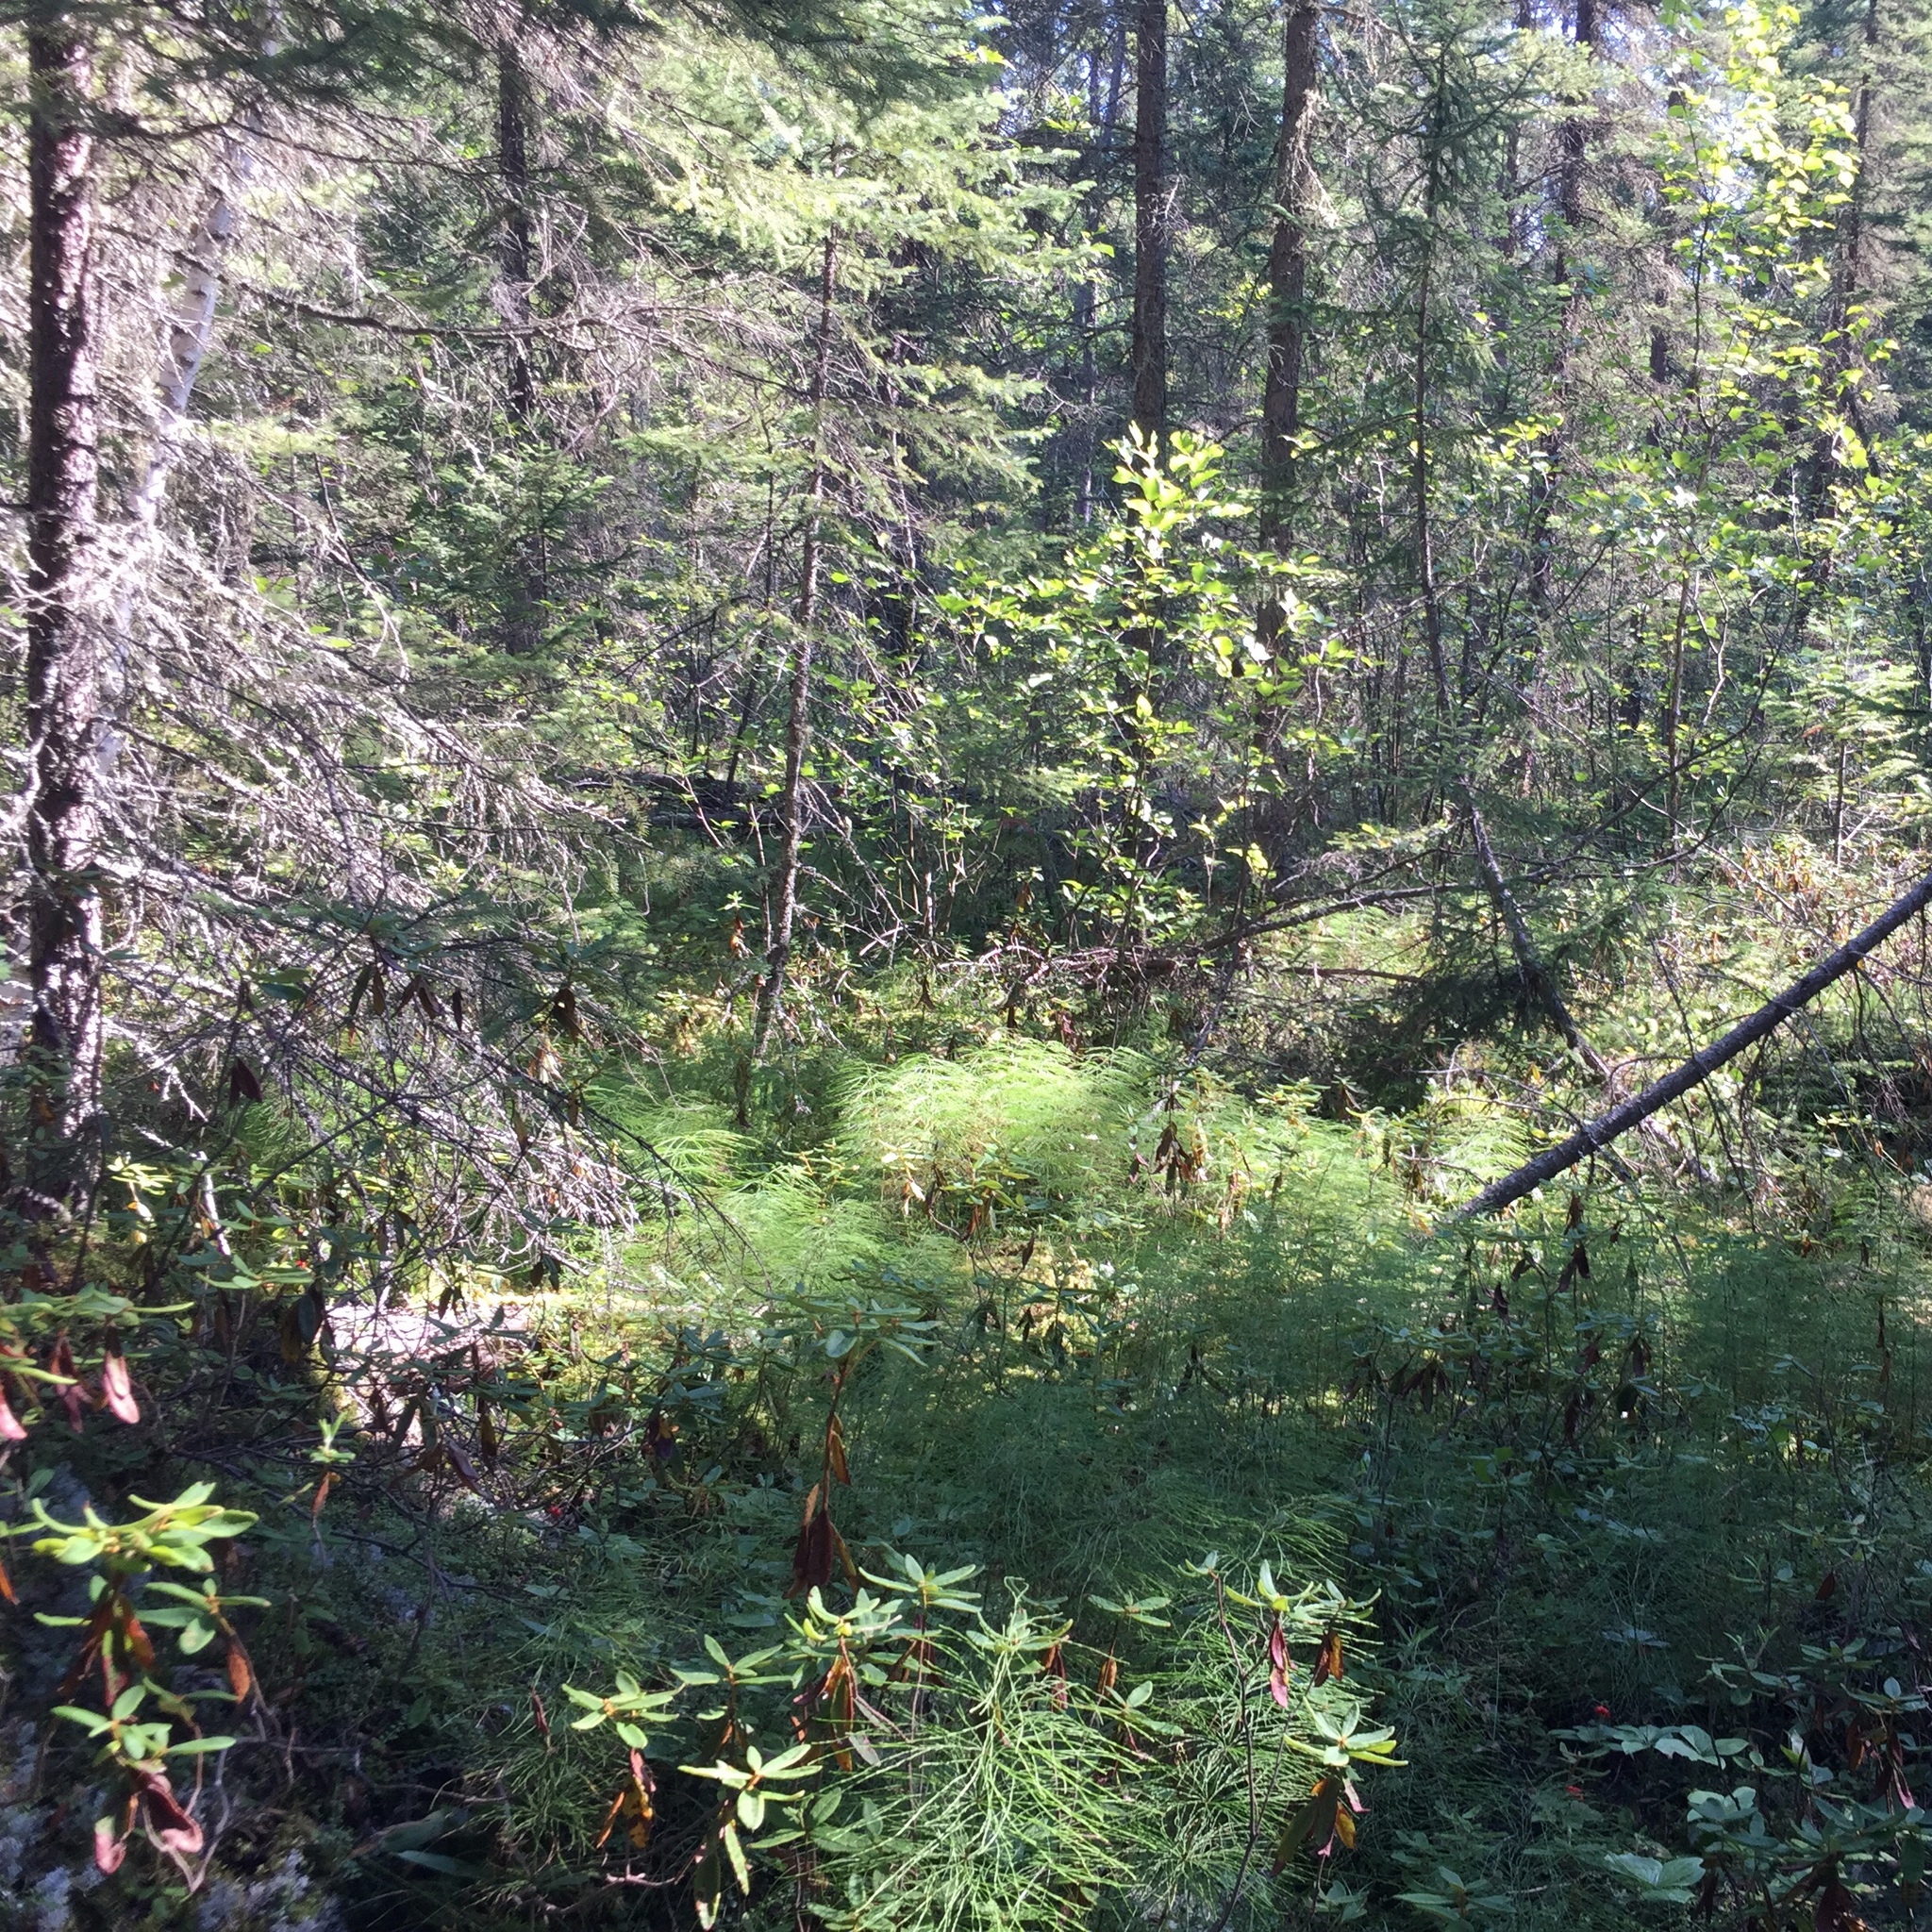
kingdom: Plantae
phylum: Tracheophyta
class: Polypodiopsida
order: Equisetales
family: Equisetaceae
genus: Equisetum
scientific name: Equisetum sylvaticum
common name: Wood horsetail
